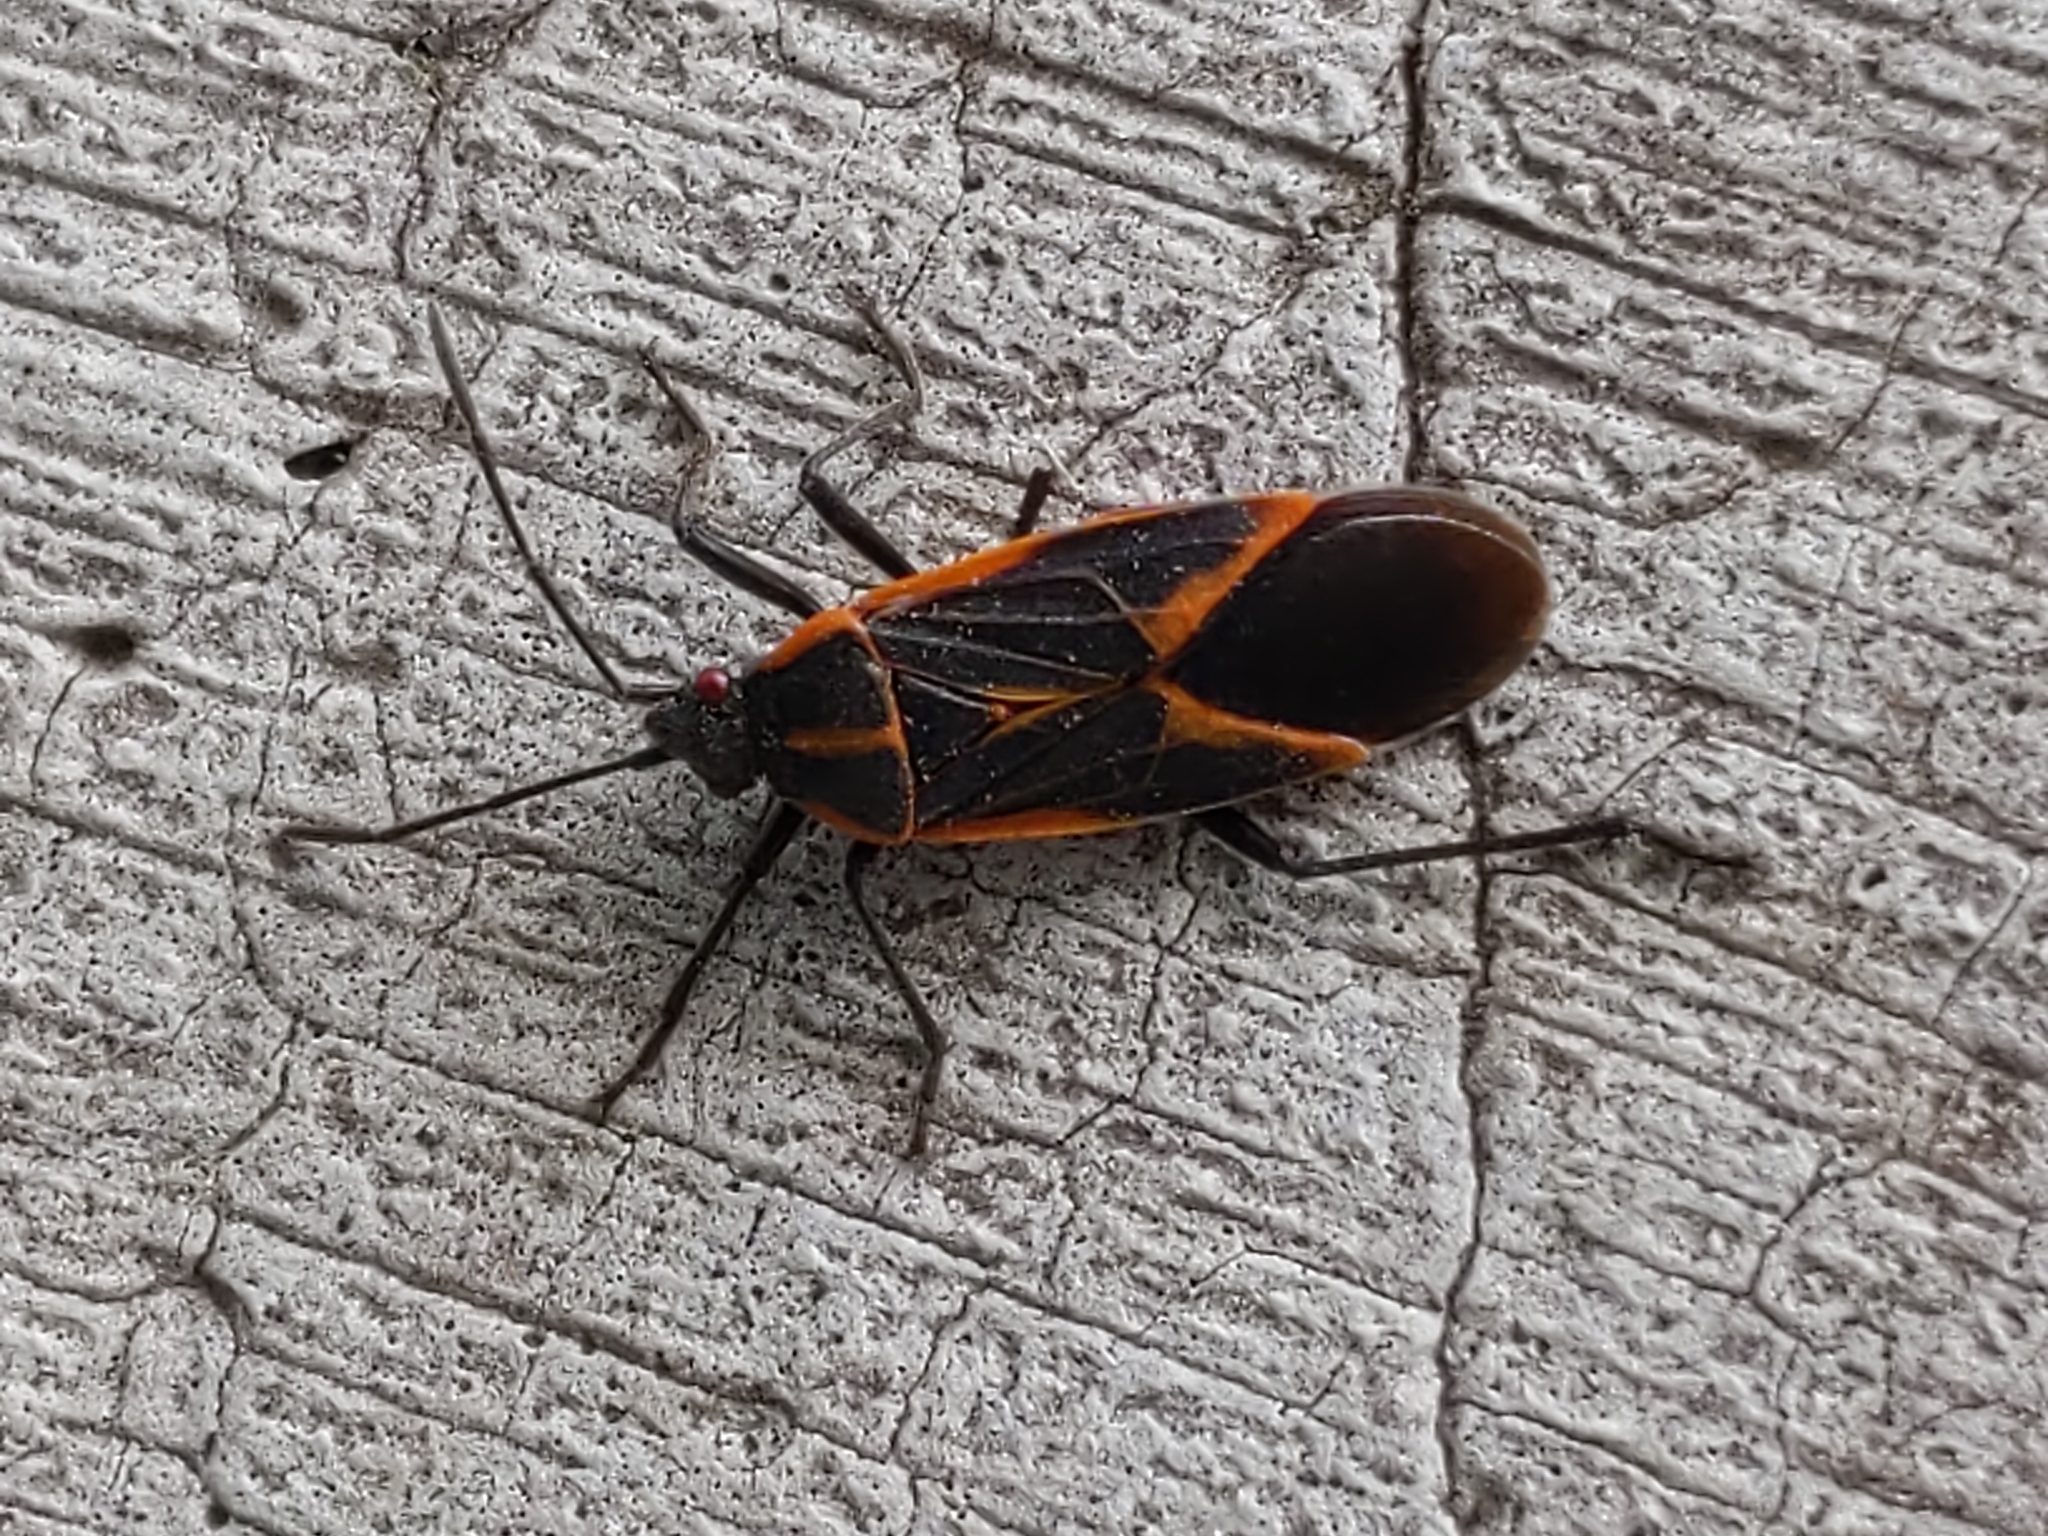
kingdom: Animalia
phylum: Arthropoda
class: Insecta
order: Hemiptera
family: Rhopalidae
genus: Boisea
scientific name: Boisea trivittata
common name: Boxelder bug
